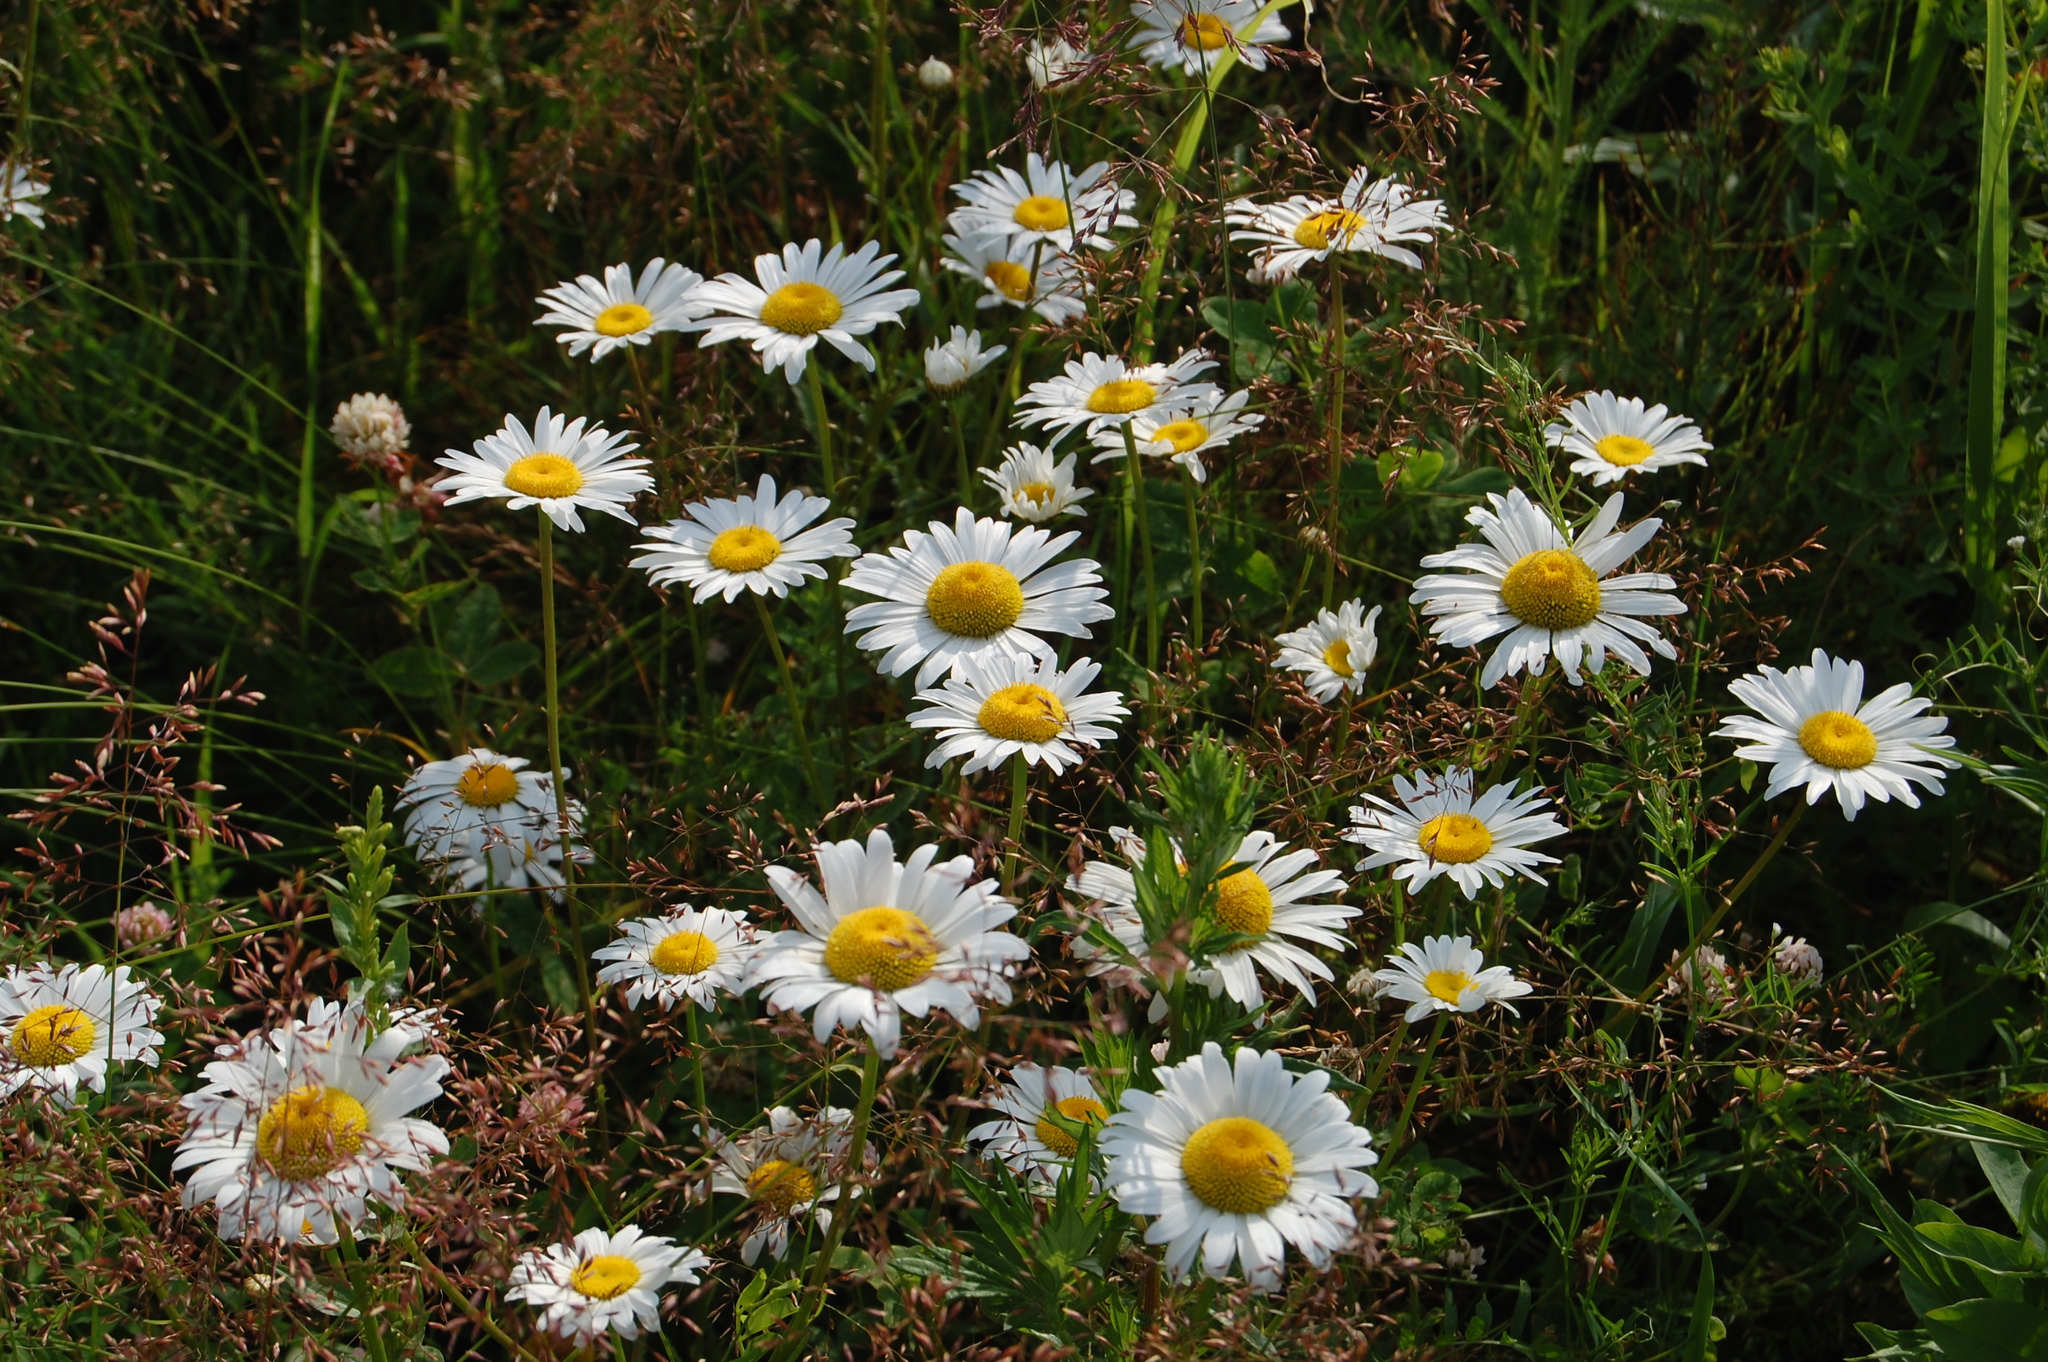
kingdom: Plantae
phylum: Tracheophyta
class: Magnoliopsida
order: Asterales
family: Asteraceae
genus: Leucanthemum
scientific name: Leucanthemum vulgare
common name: Oxeye daisy
